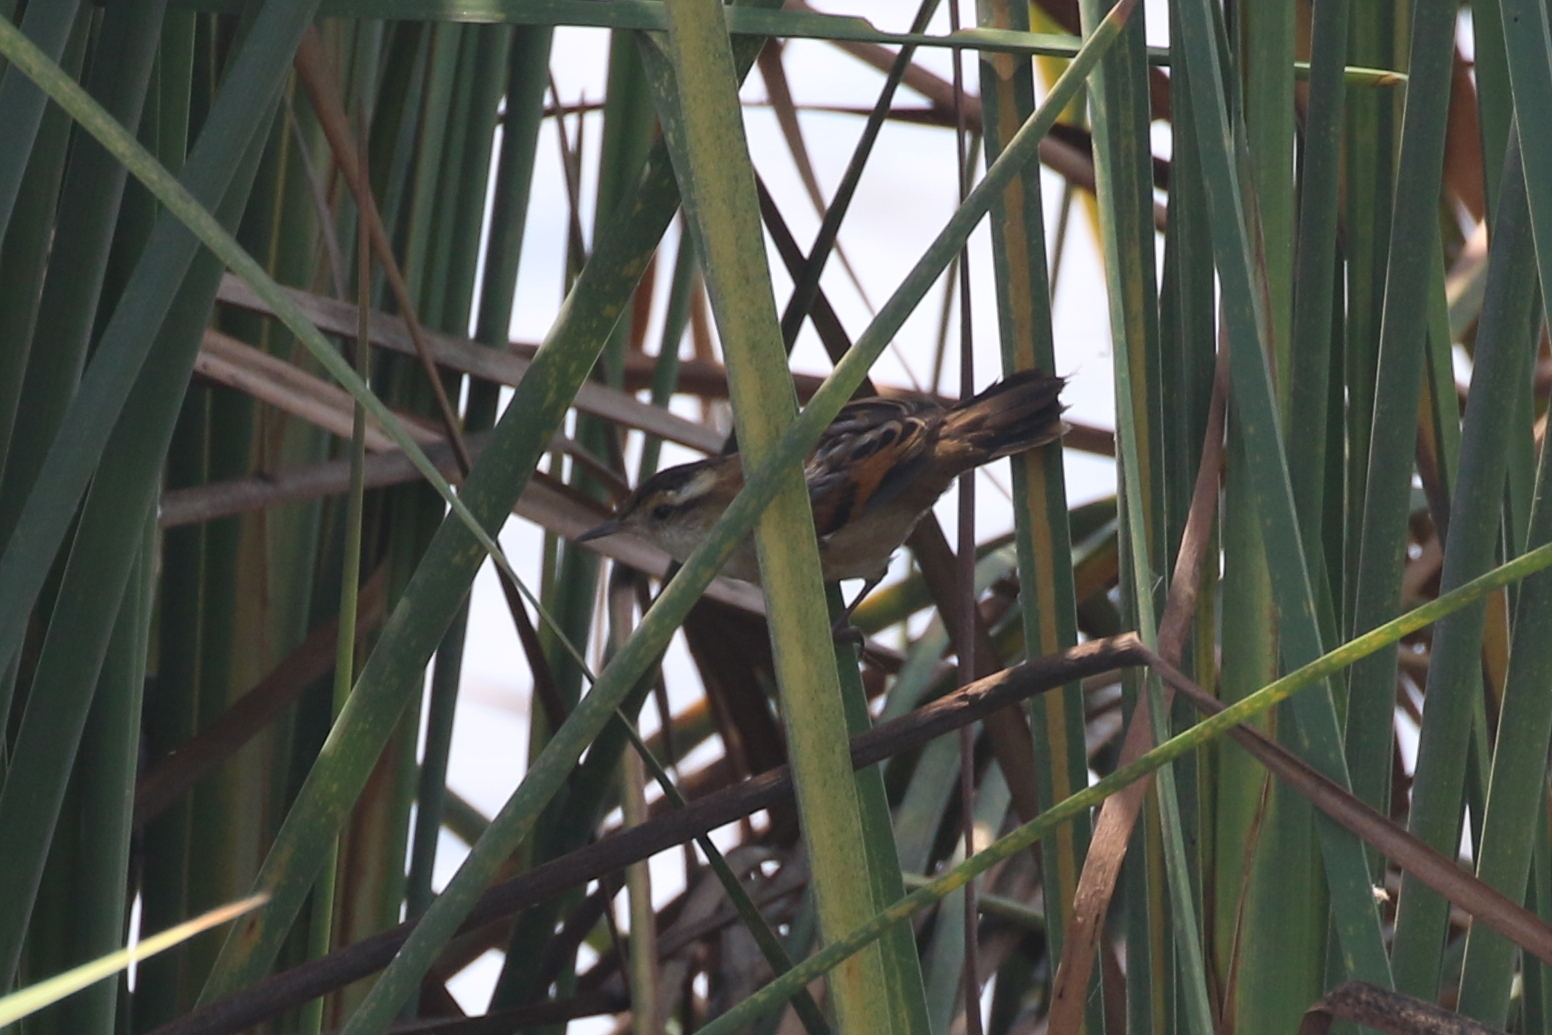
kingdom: Animalia
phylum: Chordata
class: Aves
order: Passeriformes
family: Furnariidae
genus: Phleocryptes
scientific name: Phleocryptes melanops
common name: Wren-like rushbird
